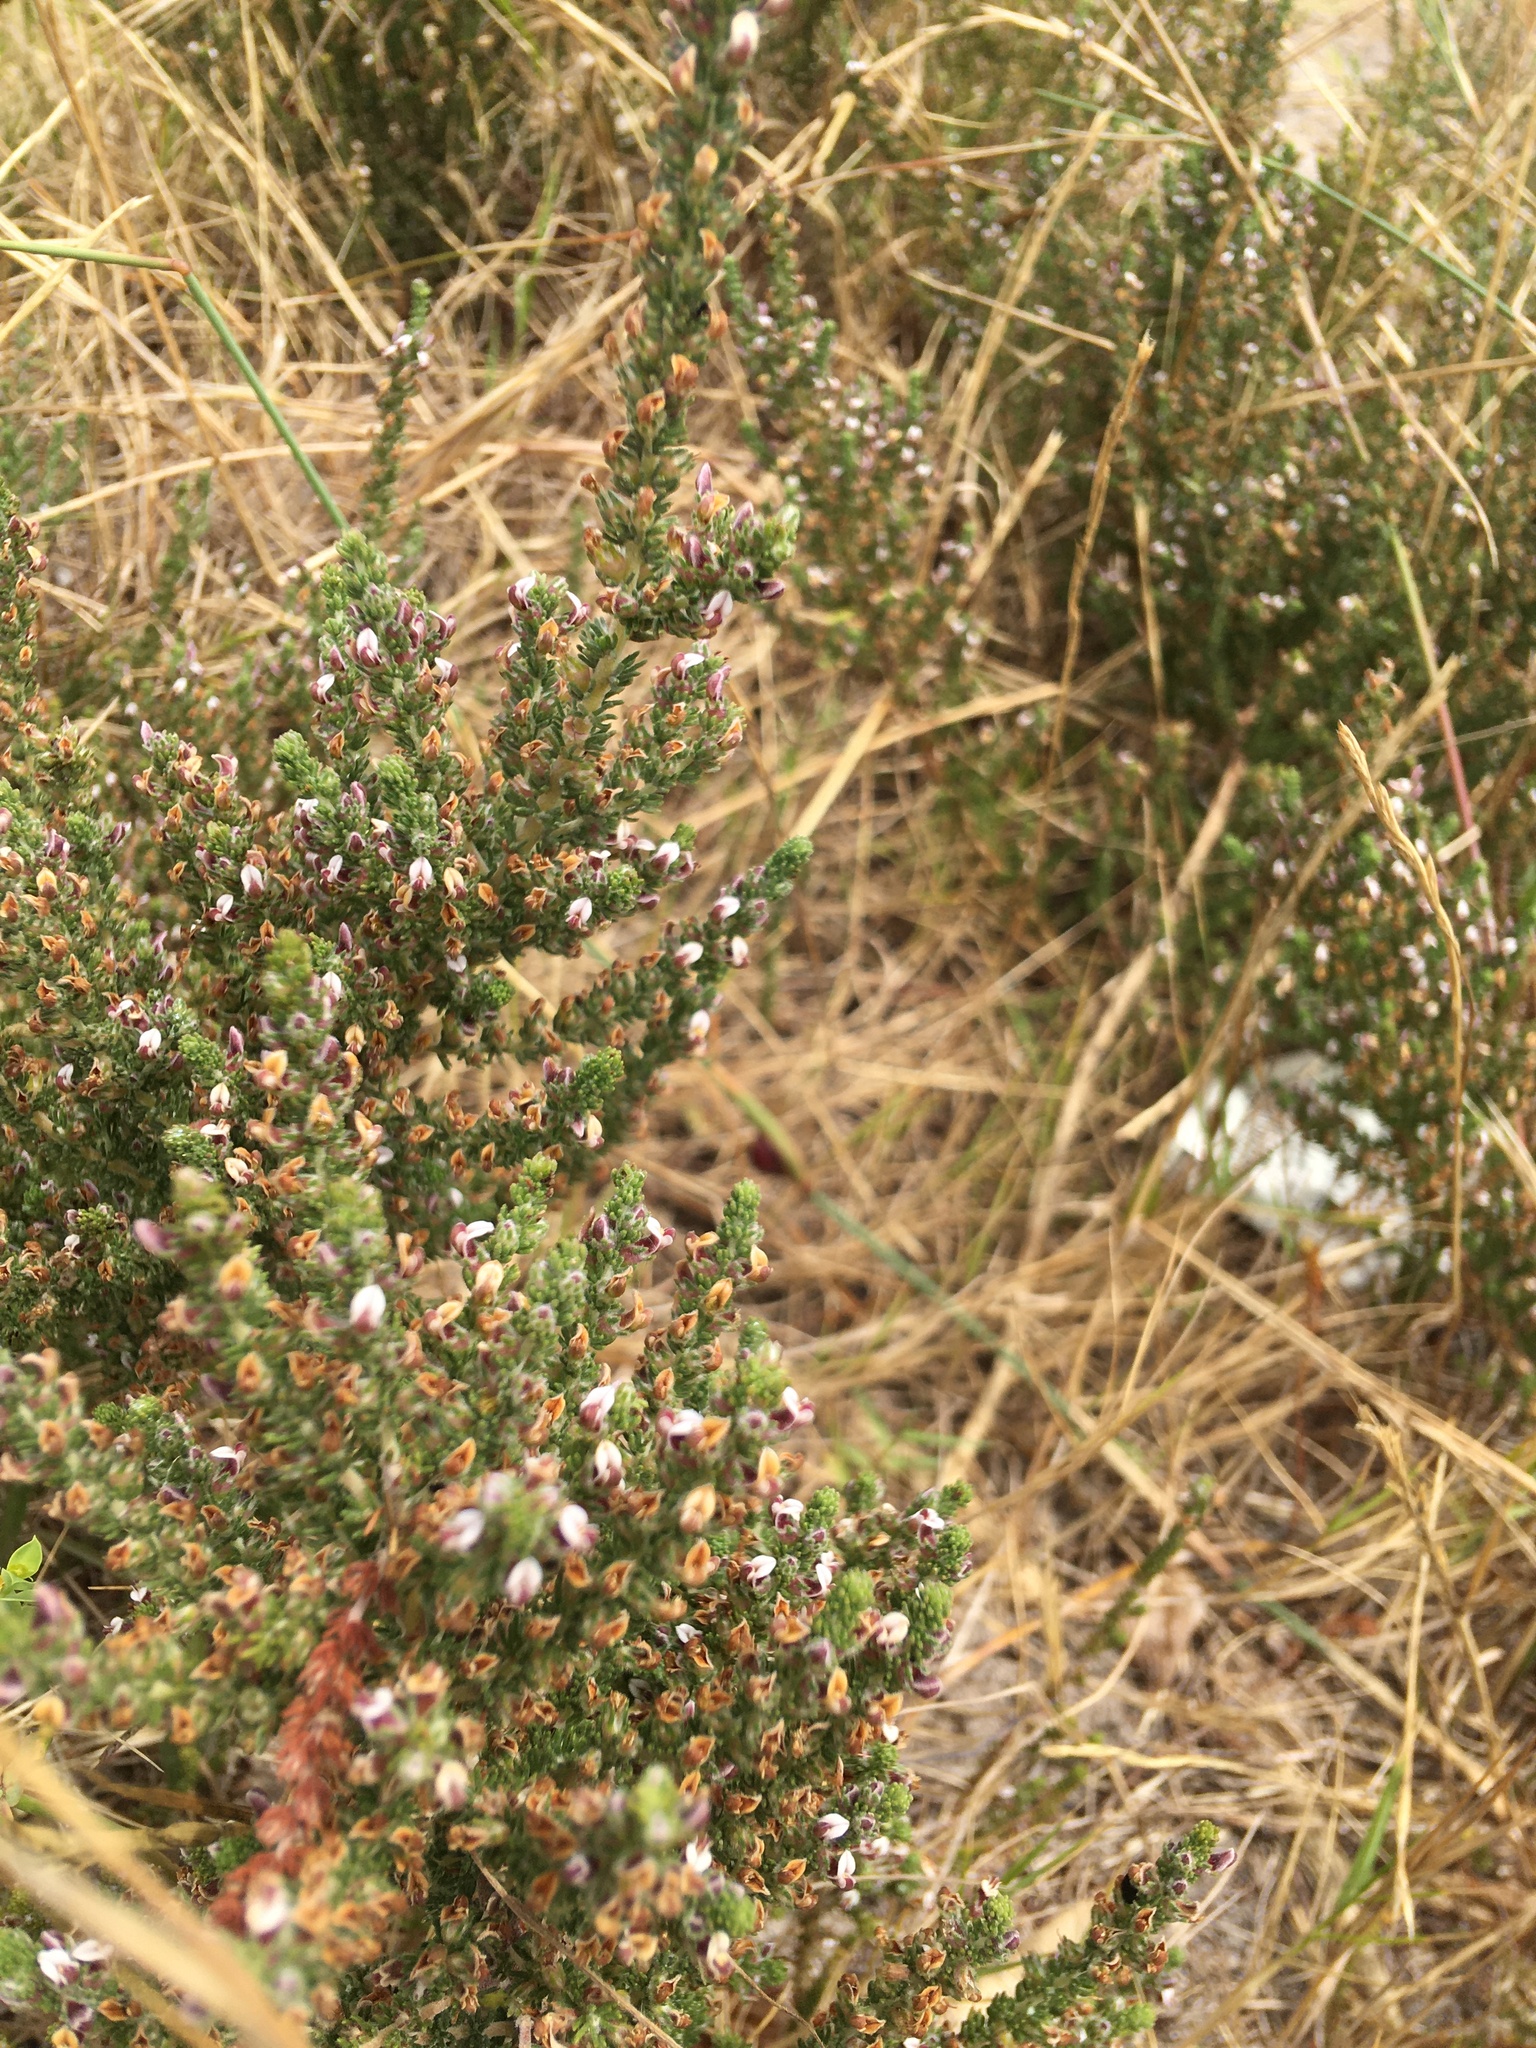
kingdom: Plantae
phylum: Tracheophyta
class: Magnoliopsida
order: Fabales
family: Fabaceae
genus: Aspalathus
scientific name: Aspalathus hispida
